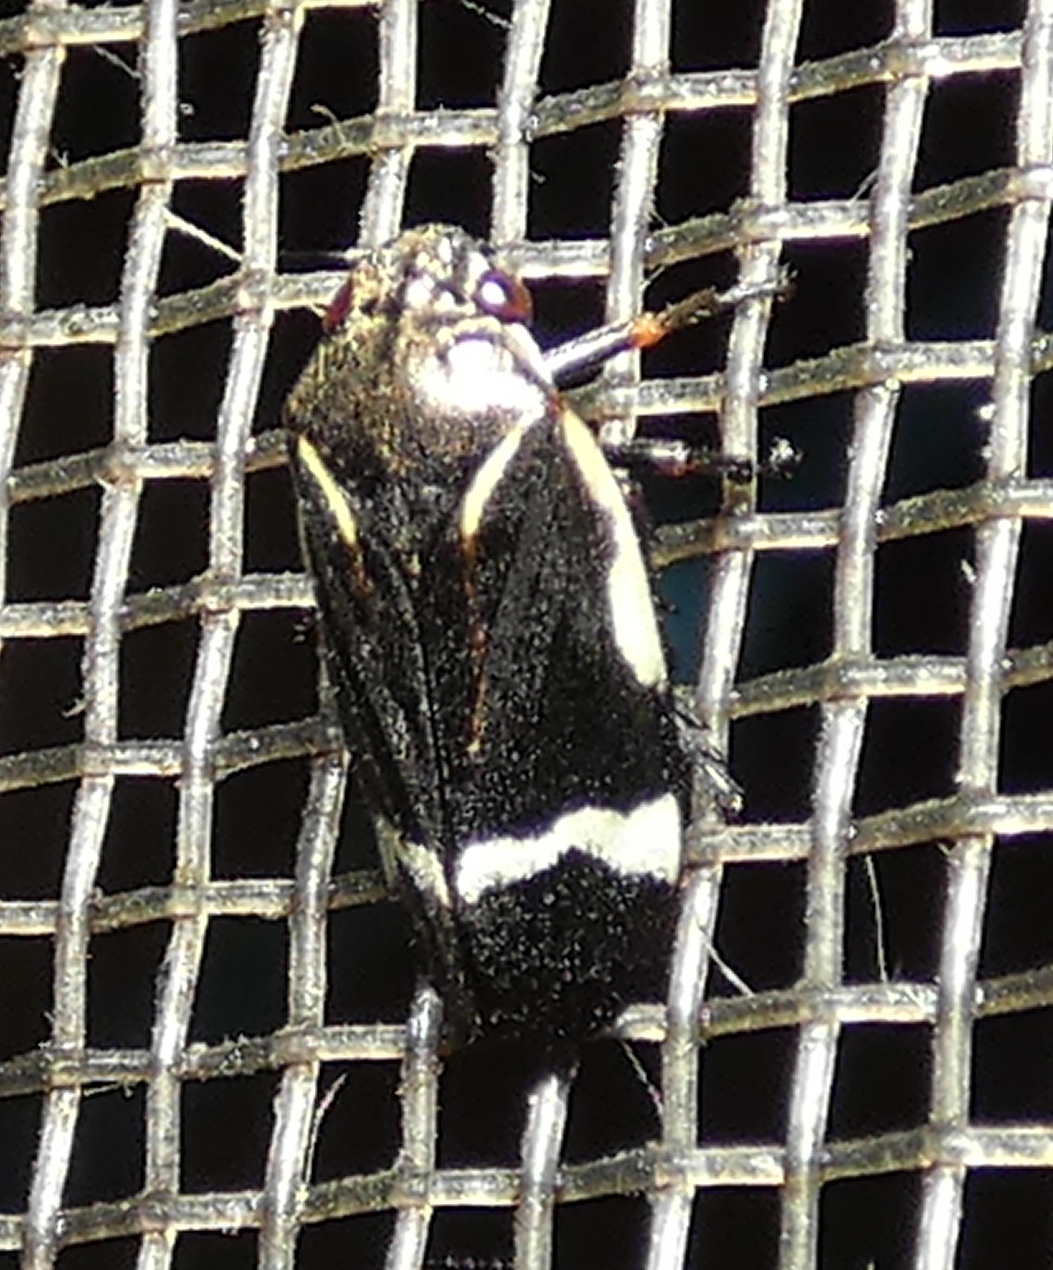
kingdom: Animalia
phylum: Arthropoda
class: Insecta
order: Hemiptera
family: Cercopidae
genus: Notozulia
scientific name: Notozulia entreriana
